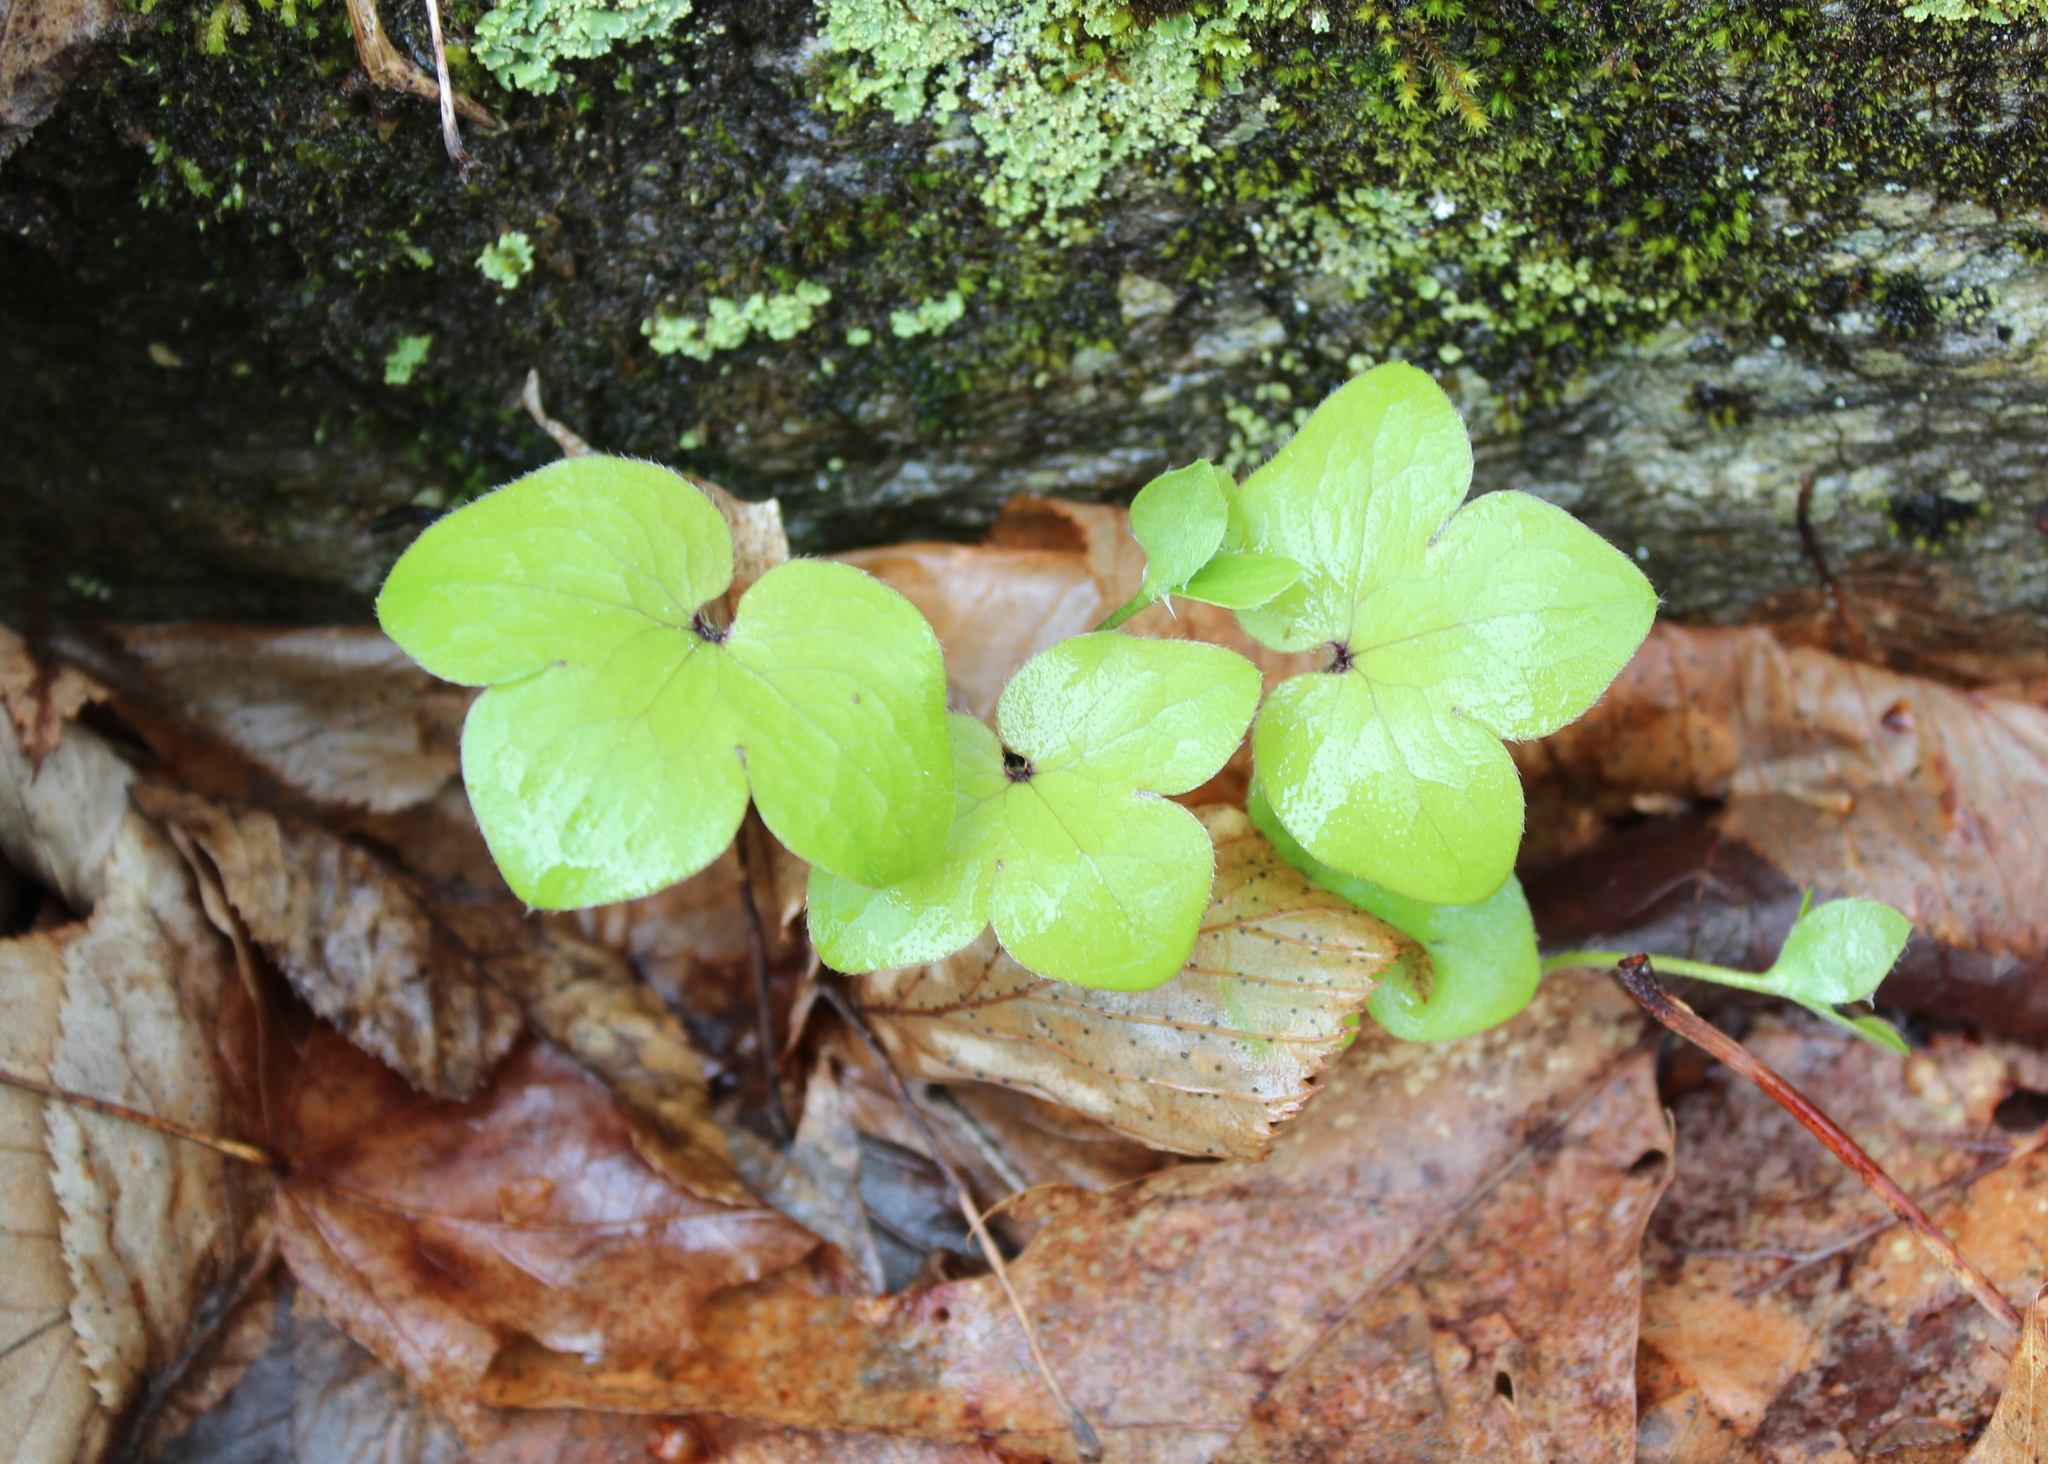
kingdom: Plantae
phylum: Tracheophyta
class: Magnoliopsida
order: Ranunculales
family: Ranunculaceae
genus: Hepatica
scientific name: Hepatica americana
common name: American hepatica
